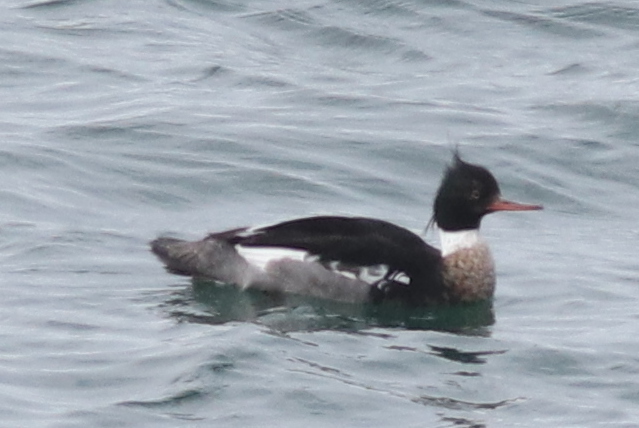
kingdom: Animalia
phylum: Chordata
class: Aves
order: Anseriformes
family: Anatidae
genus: Mergus
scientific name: Mergus serrator
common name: Red-breasted merganser
